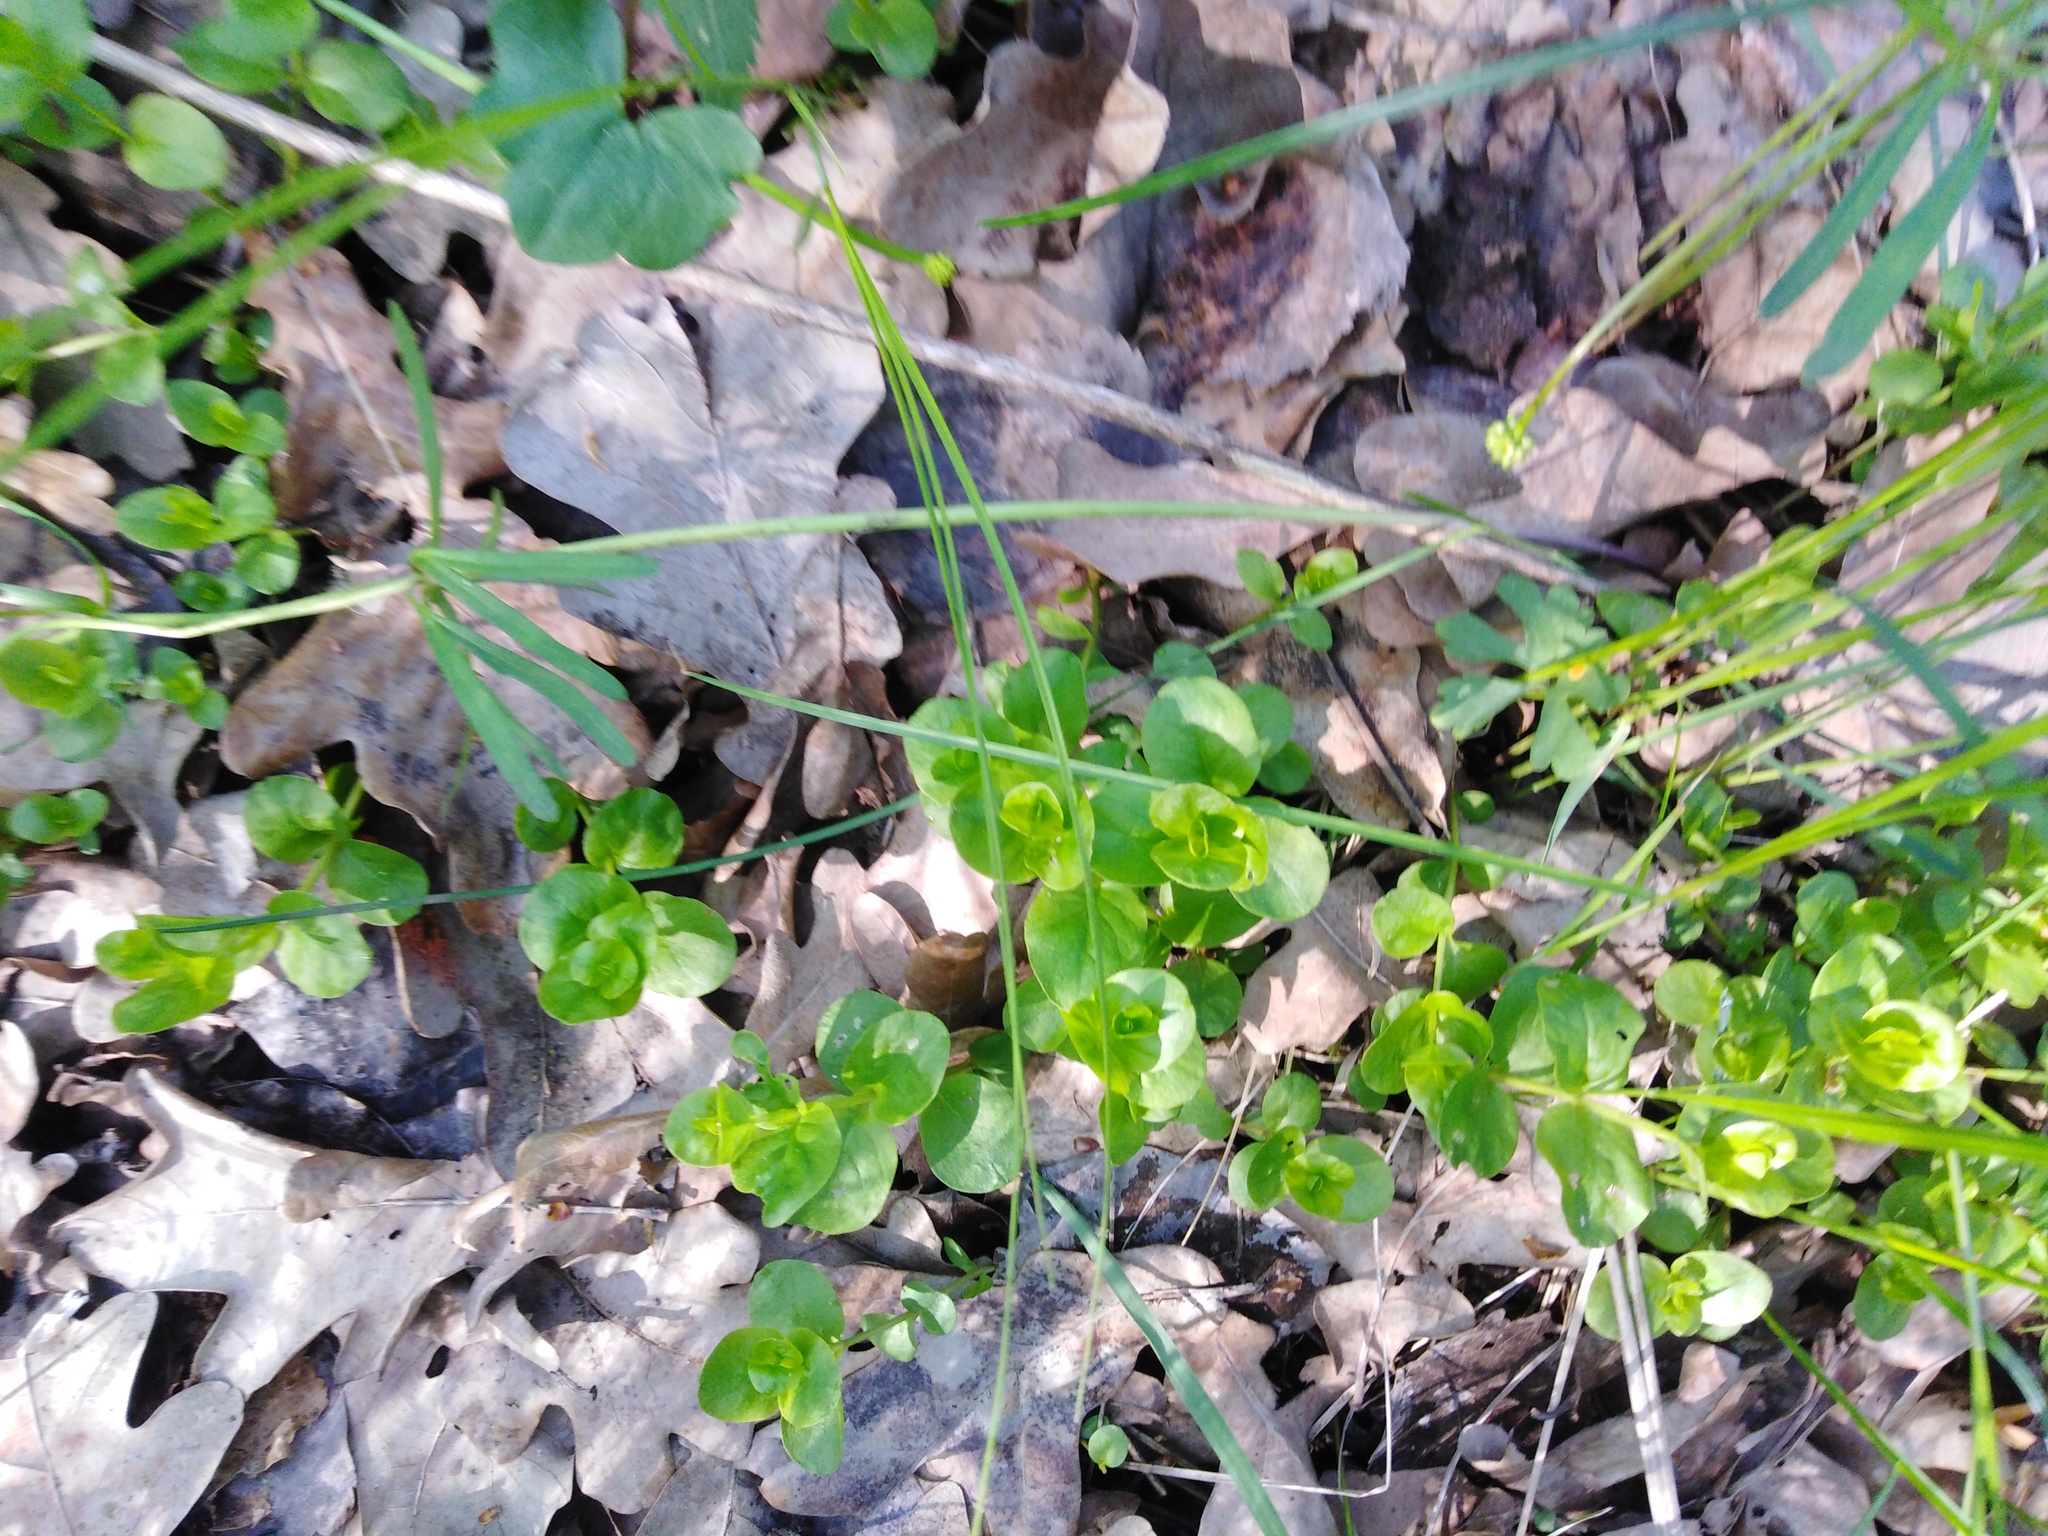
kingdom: Plantae
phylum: Tracheophyta
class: Magnoliopsida
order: Ericales
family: Primulaceae
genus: Lysimachia
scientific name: Lysimachia nummularia
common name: Moneywort
